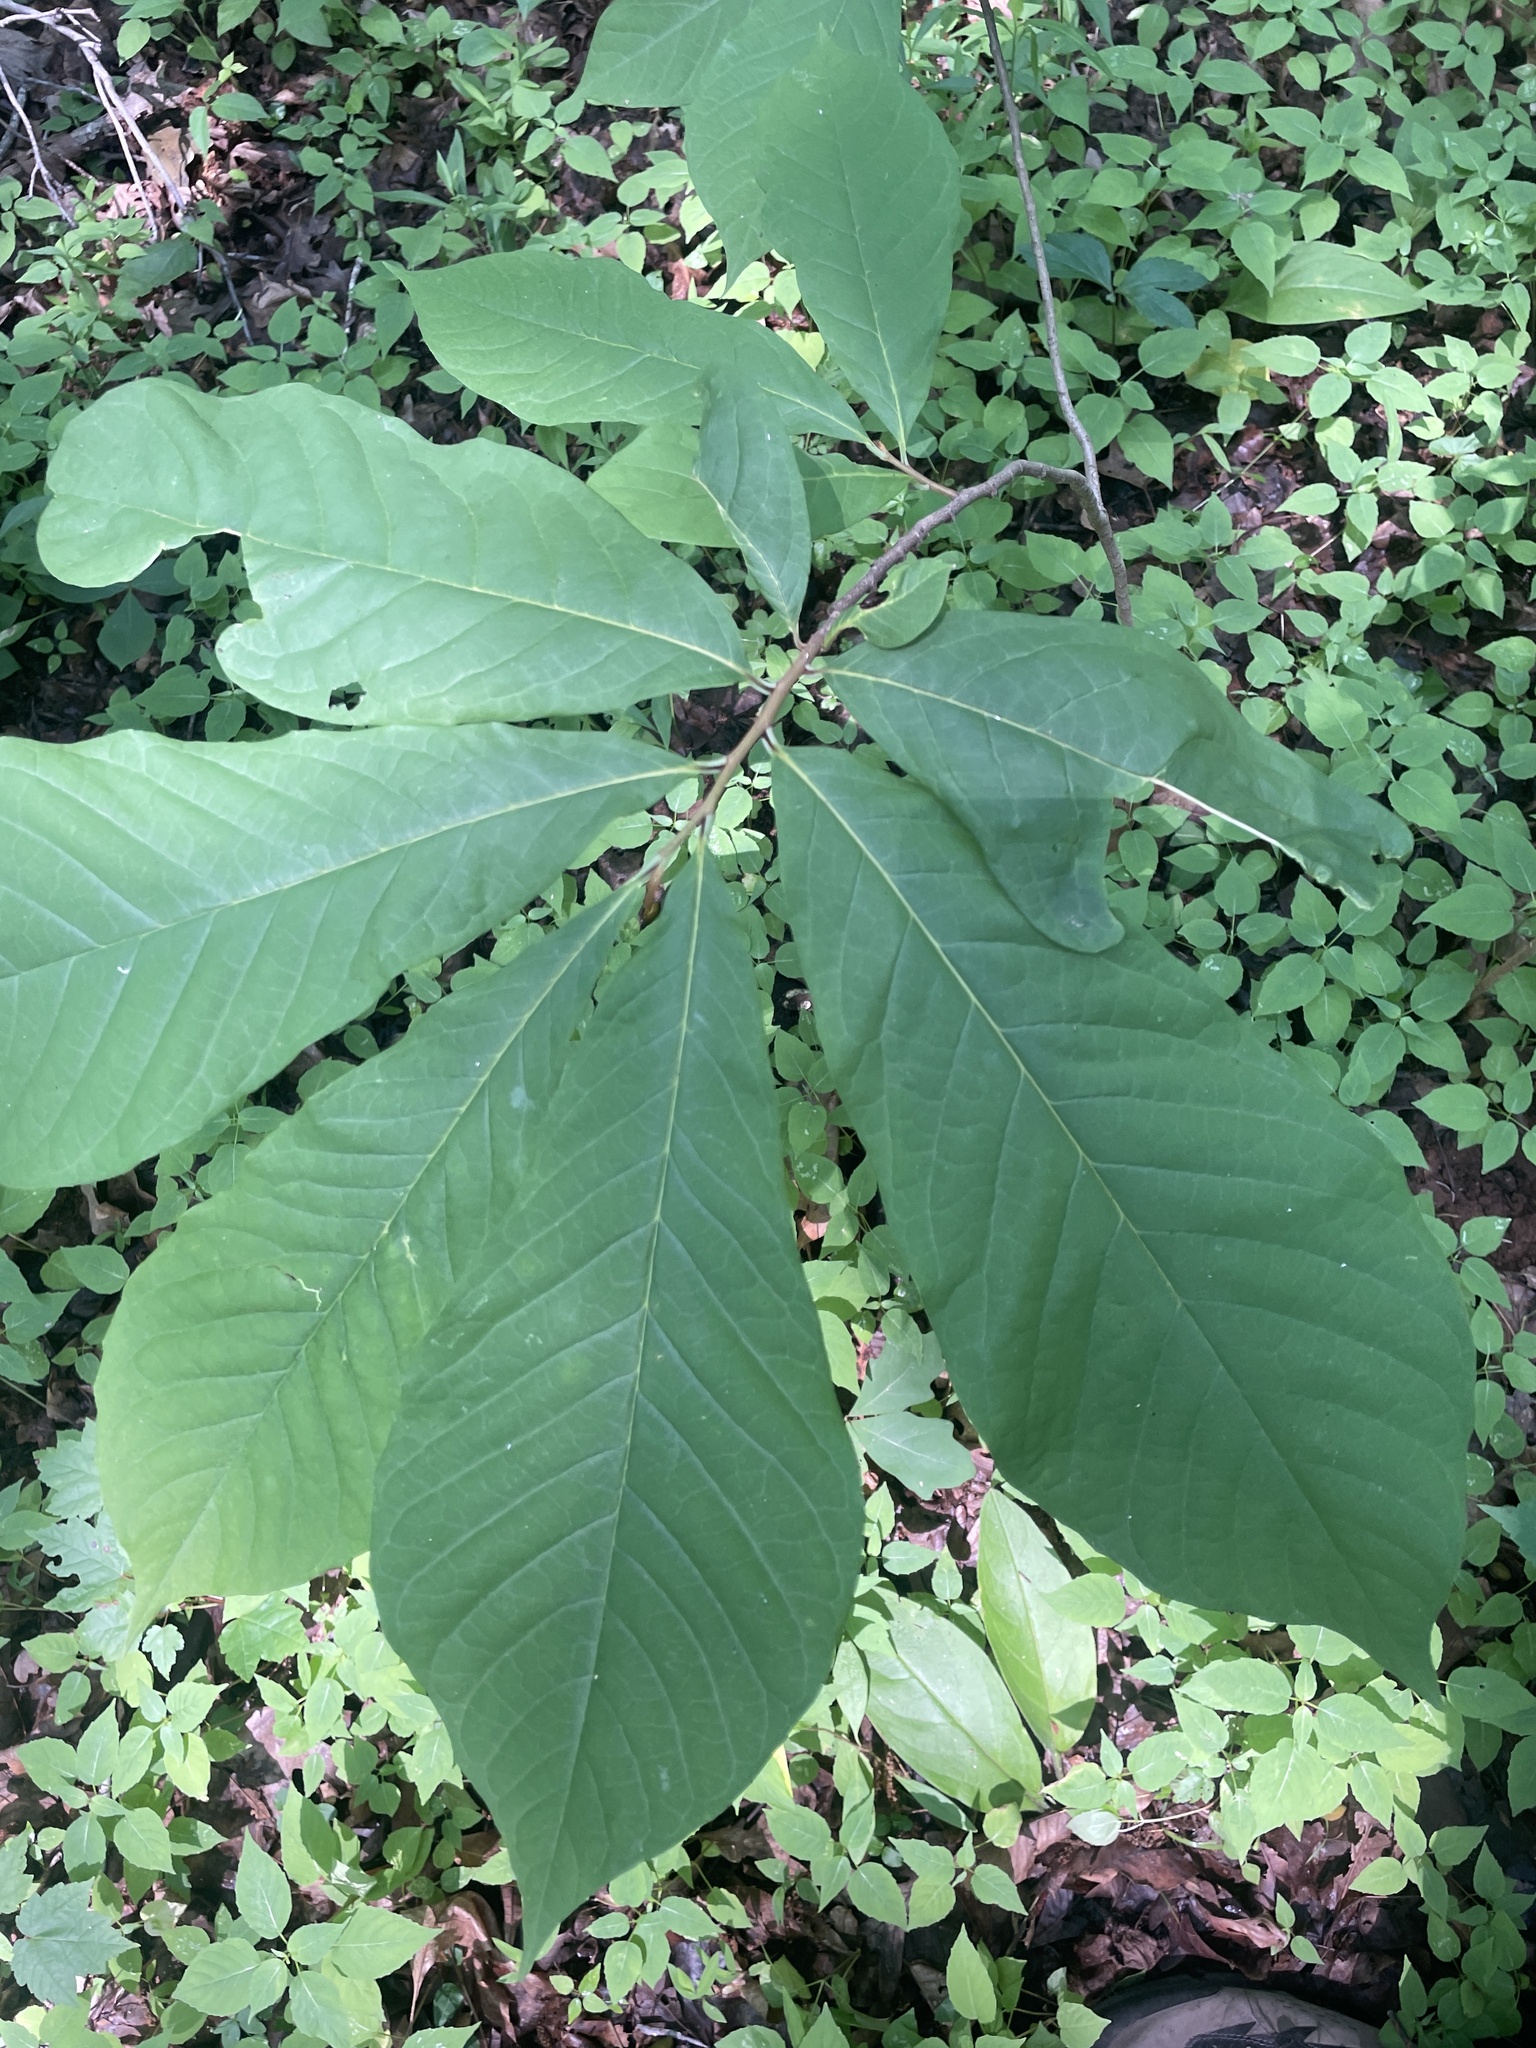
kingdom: Plantae
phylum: Tracheophyta
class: Magnoliopsida
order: Magnoliales
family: Annonaceae
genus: Asimina
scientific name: Asimina triloba
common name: Dog-banana
